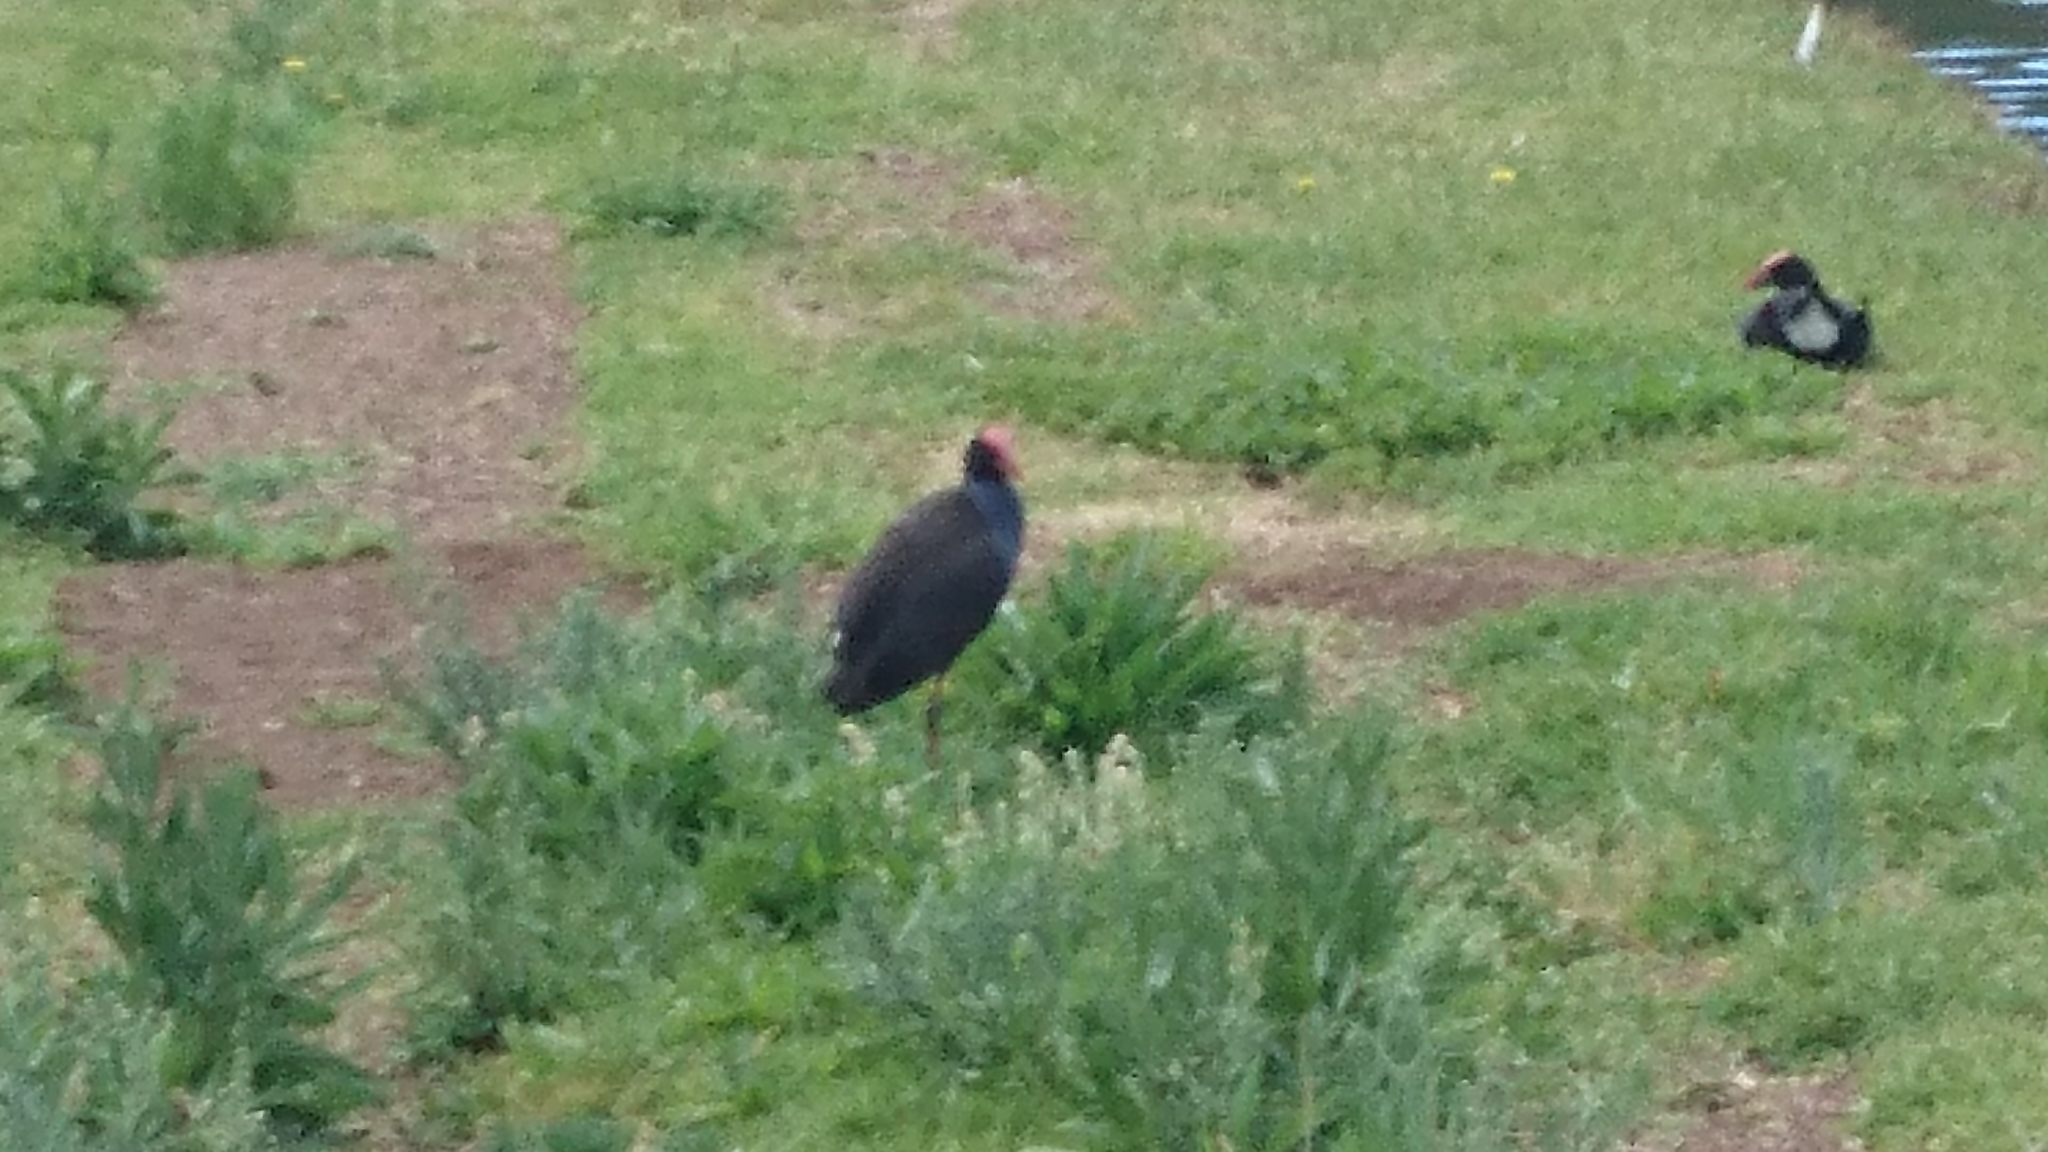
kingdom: Animalia
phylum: Chordata
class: Aves
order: Gruiformes
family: Rallidae
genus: Porphyrio
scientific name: Porphyrio melanotus
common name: Australasian swamphen
